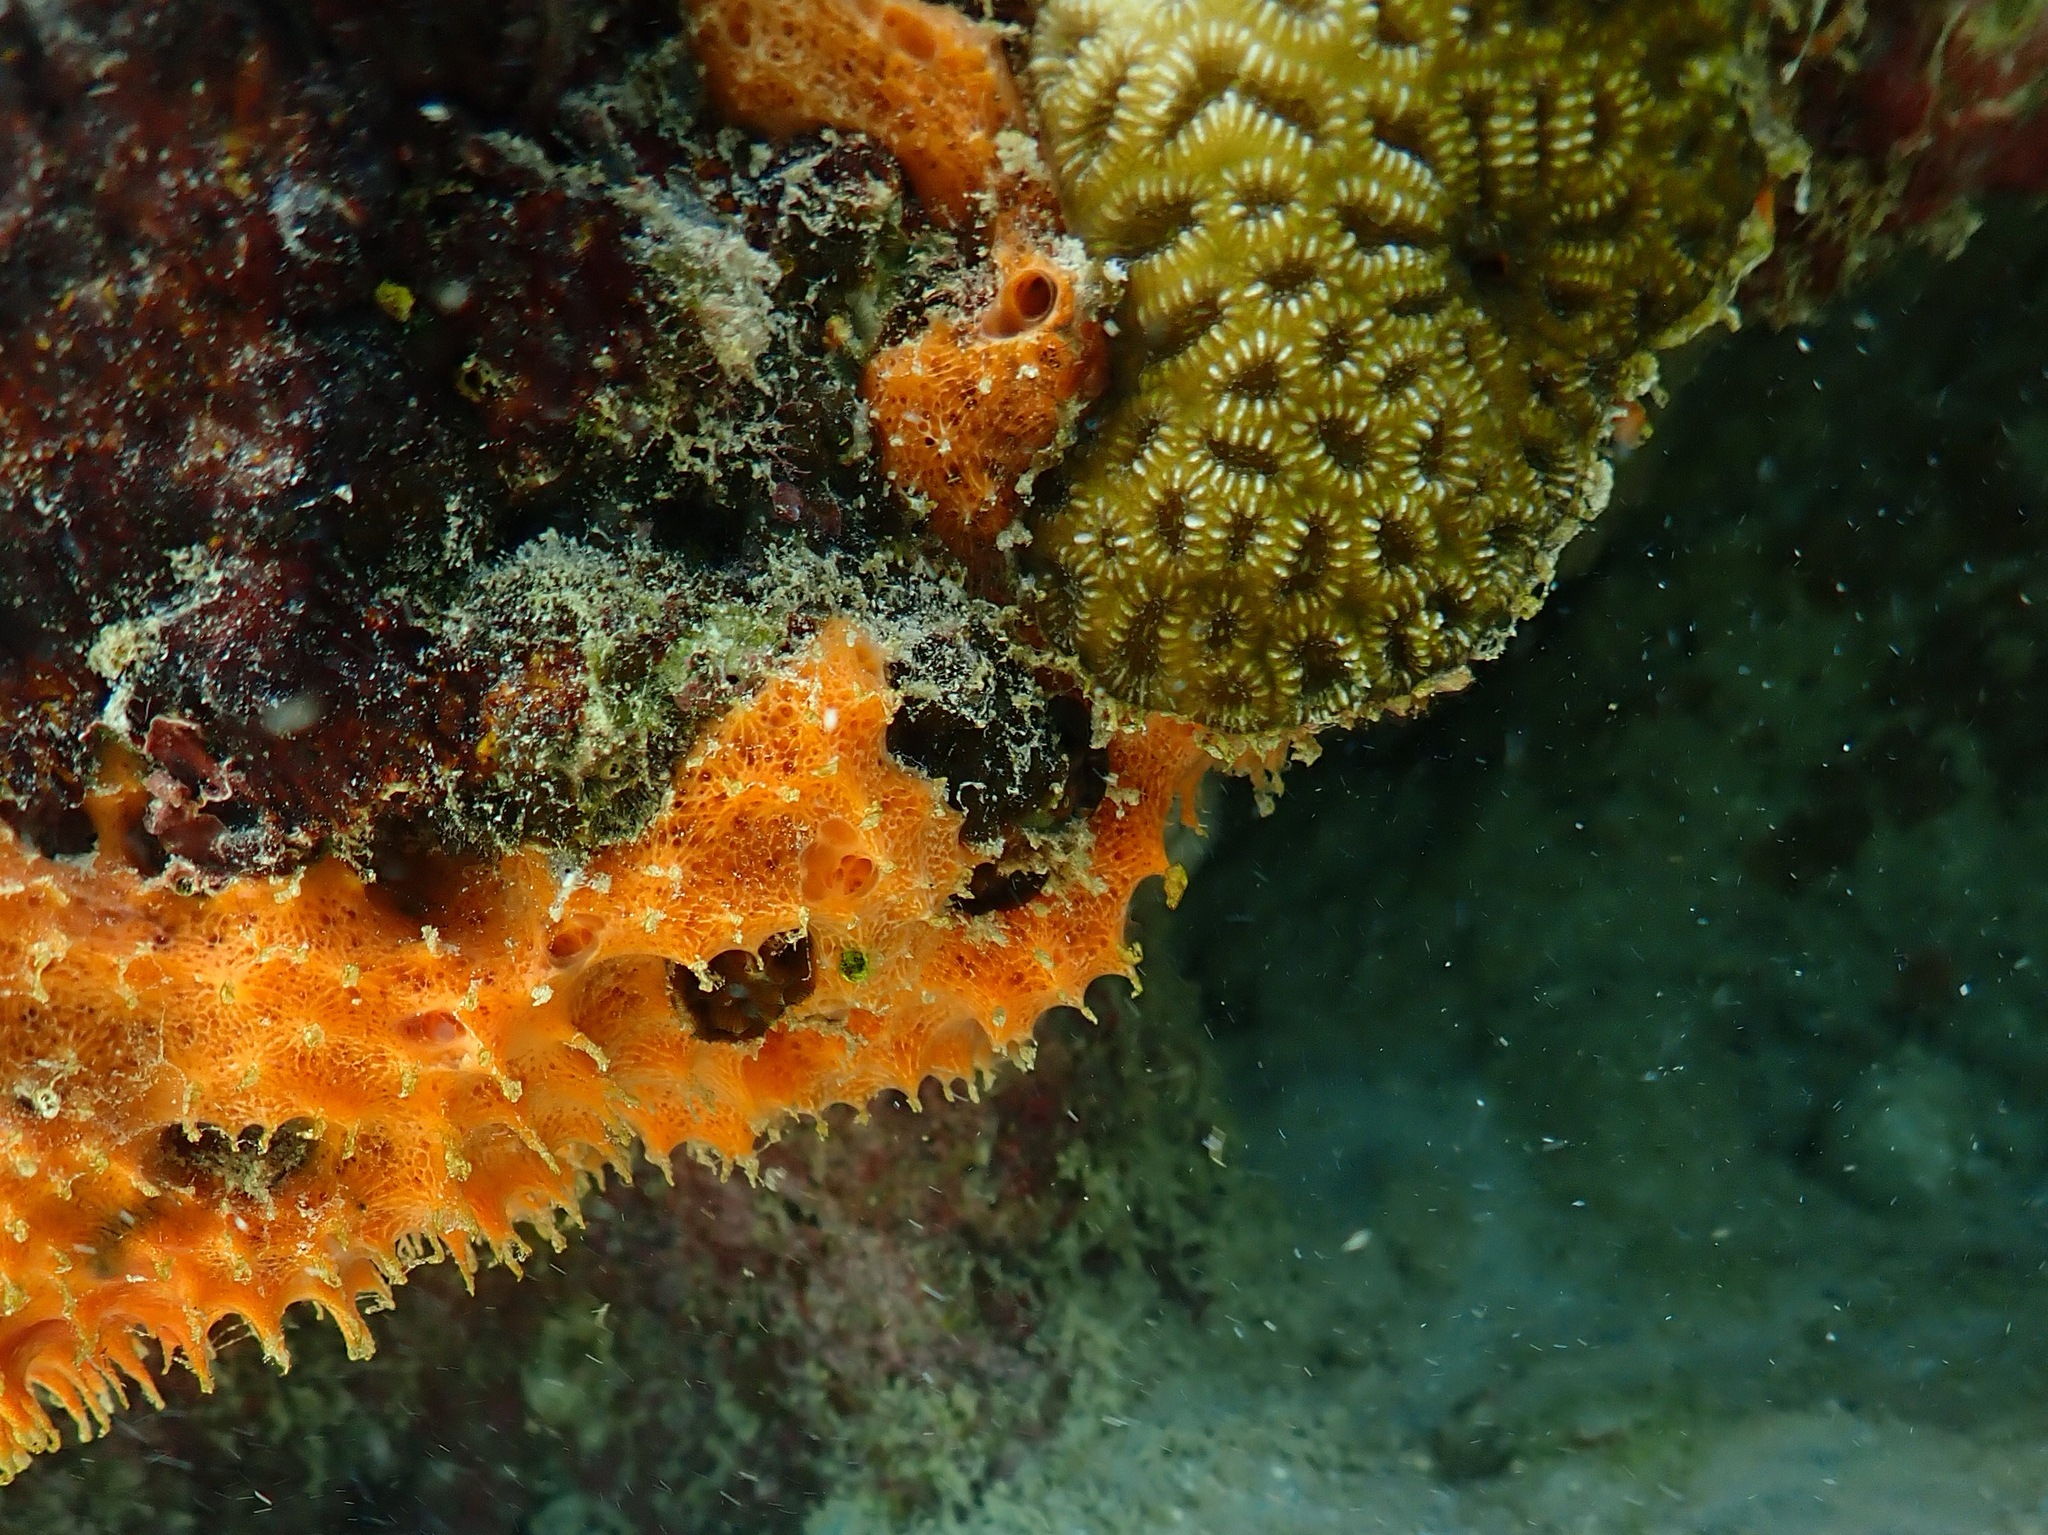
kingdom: Animalia
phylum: Porifera
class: Demospongiae
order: Scopalinida
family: Scopalinidae
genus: Scopalina
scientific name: Scopalina ruetzleri
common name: Orange lumpy encrusting sponge
